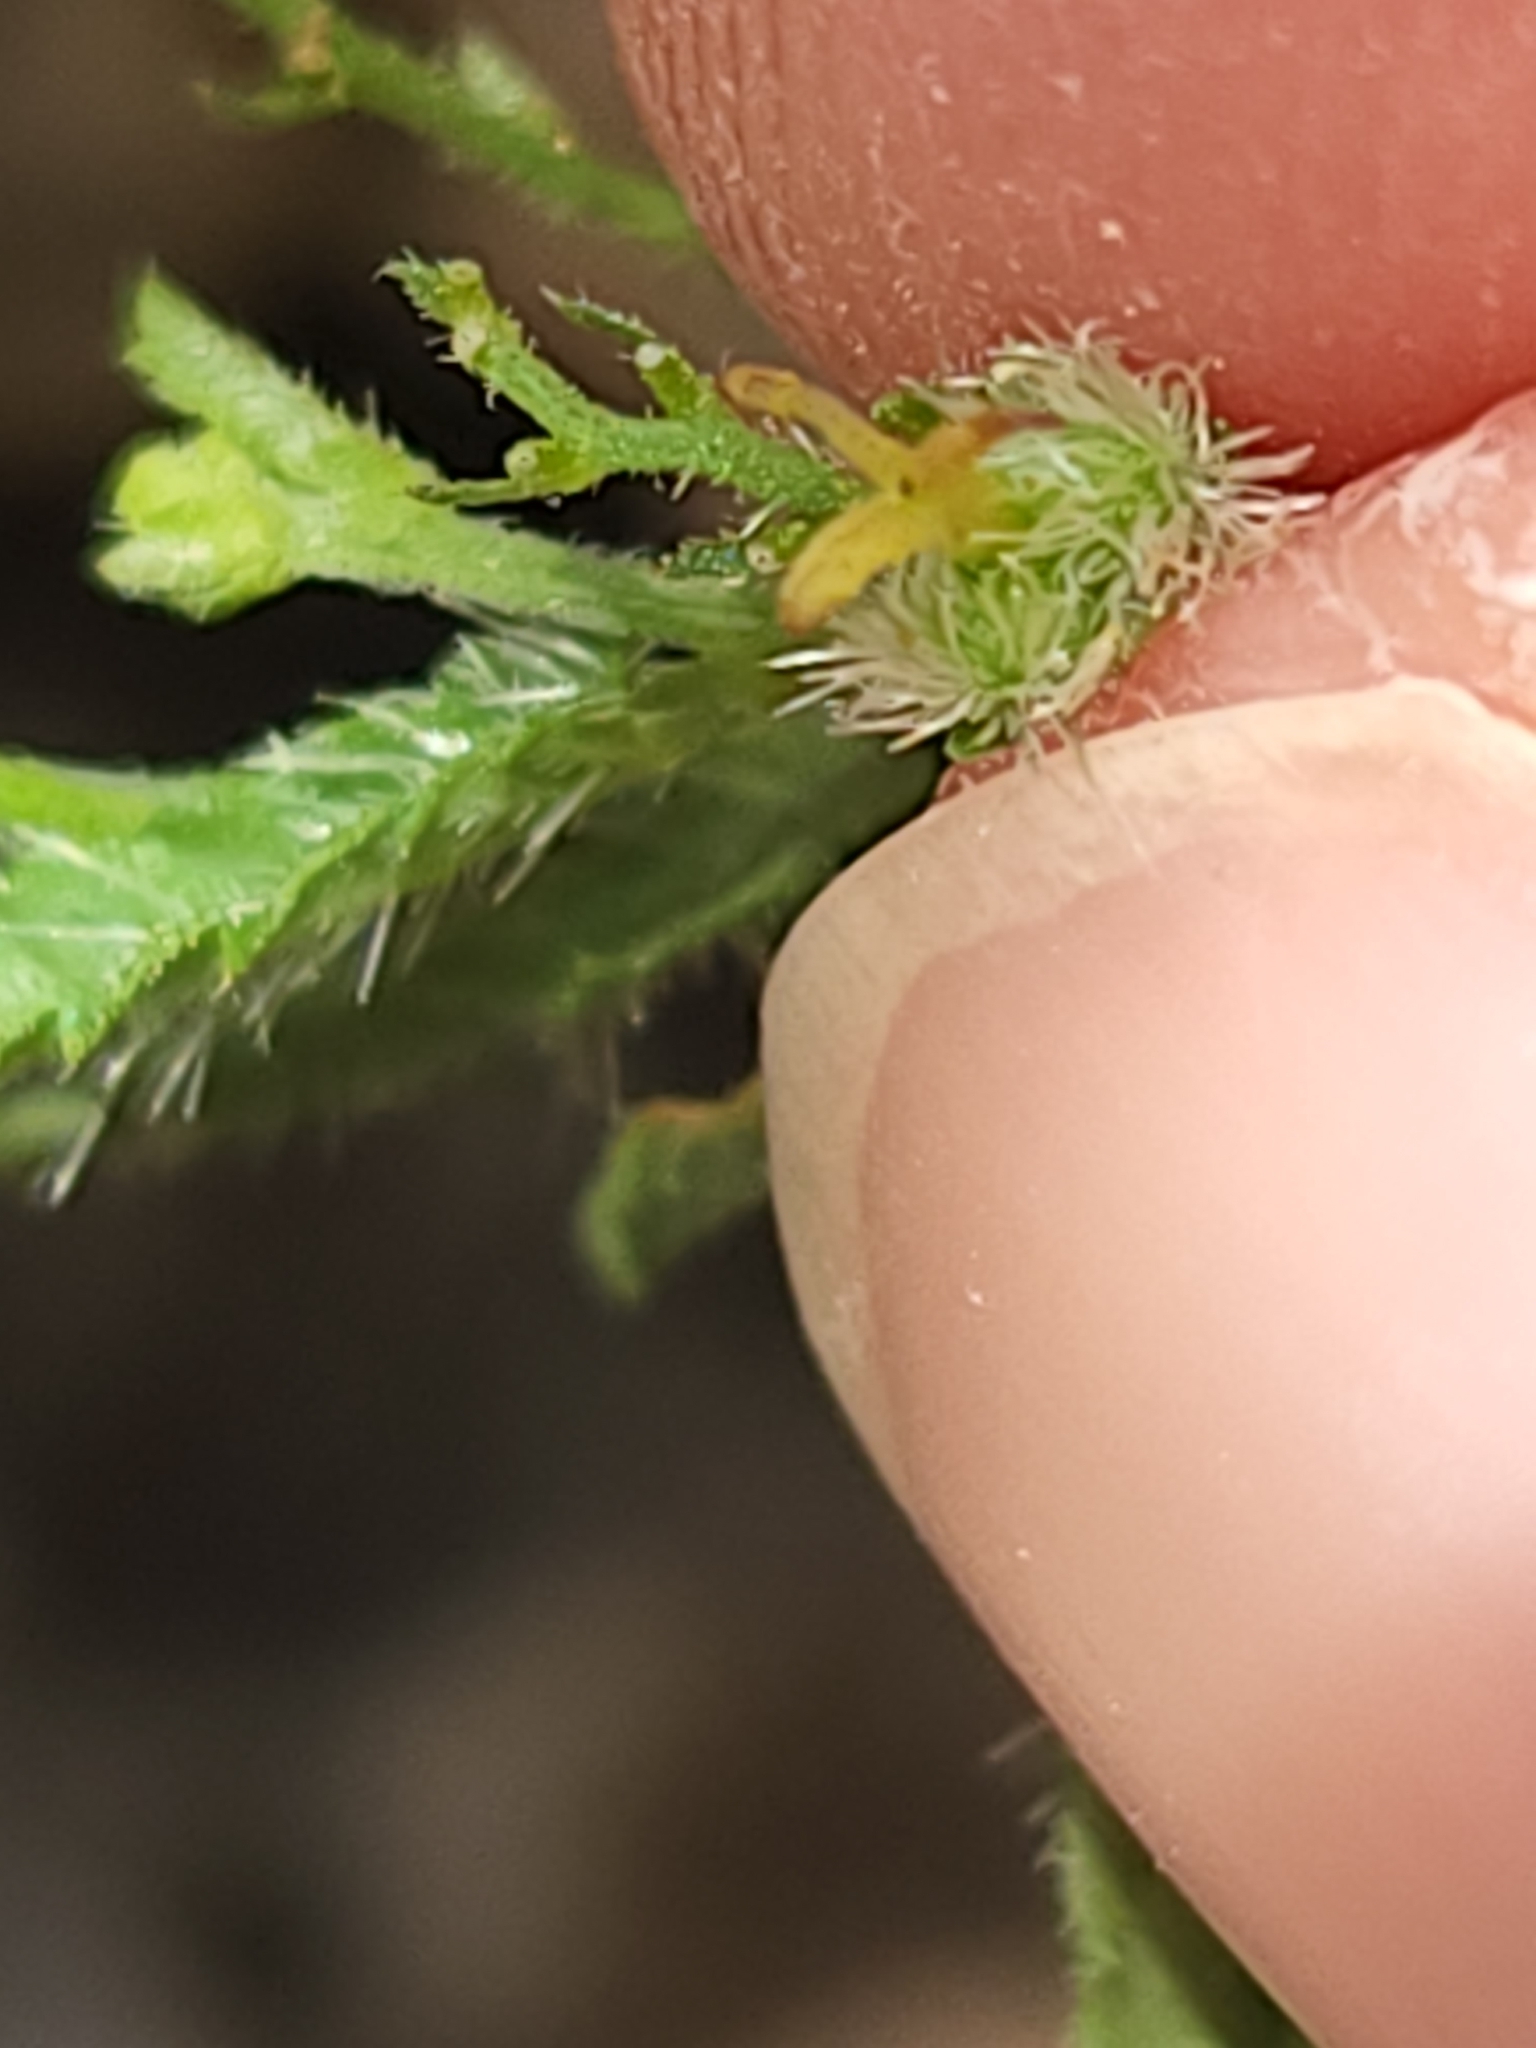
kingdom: Plantae
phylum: Tracheophyta
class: Magnoliopsida
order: Malpighiales
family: Euphorbiaceae
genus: Tragia
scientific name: Tragia ramosa
